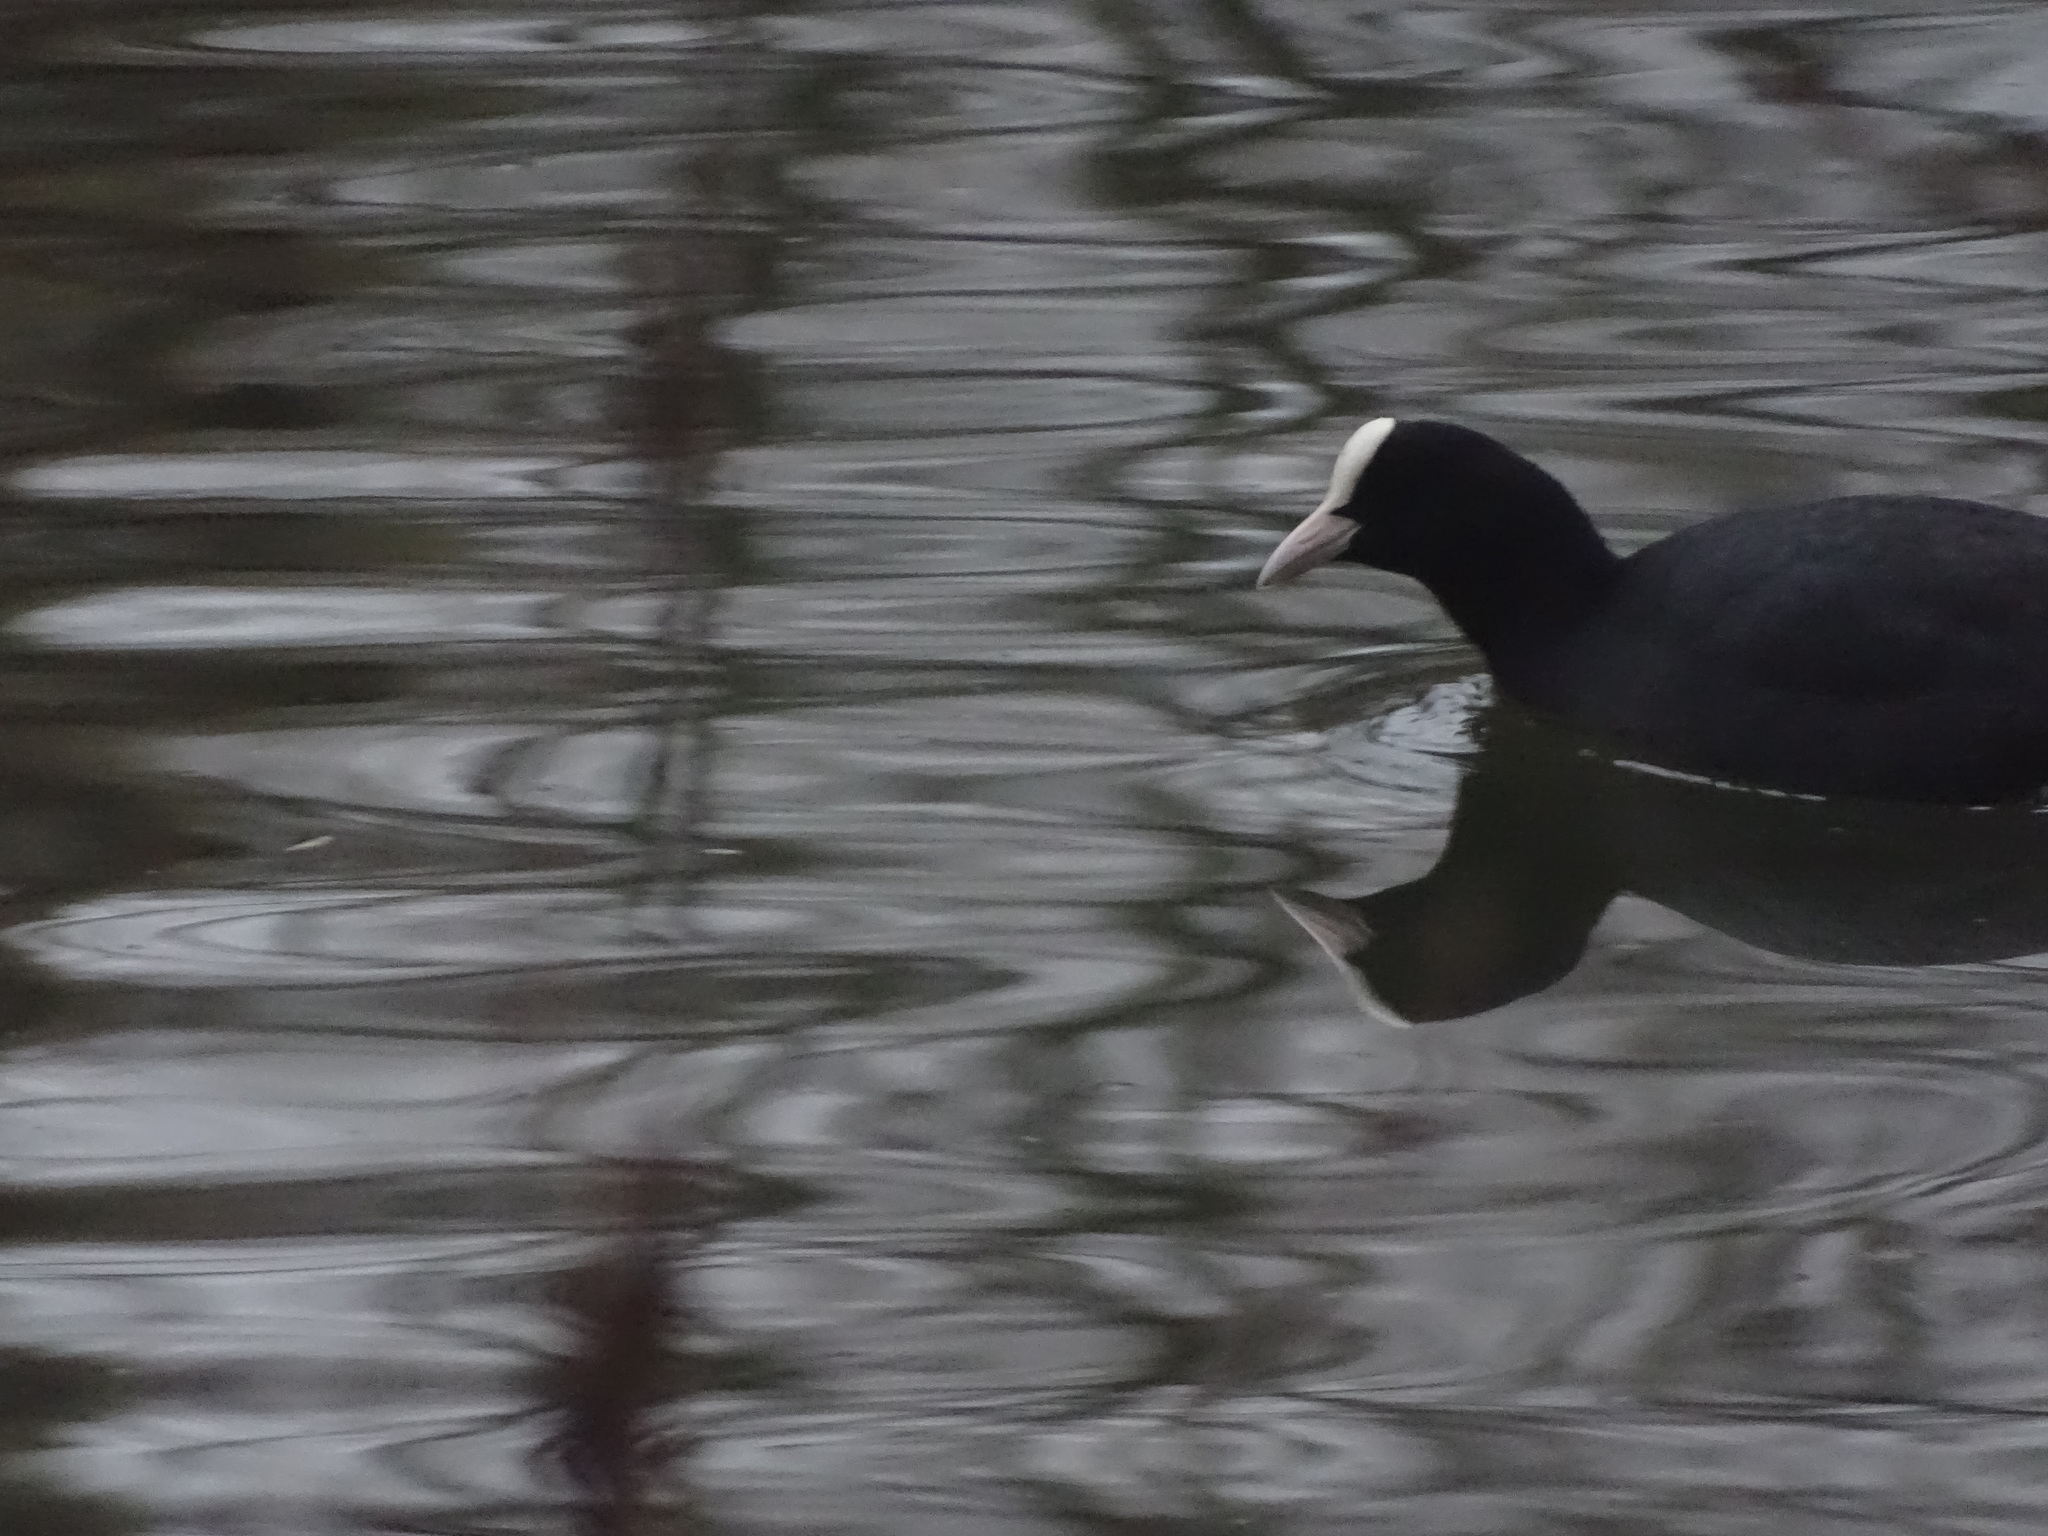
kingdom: Animalia
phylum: Chordata
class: Aves
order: Gruiformes
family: Rallidae
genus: Fulica
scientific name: Fulica atra
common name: Eurasian coot
